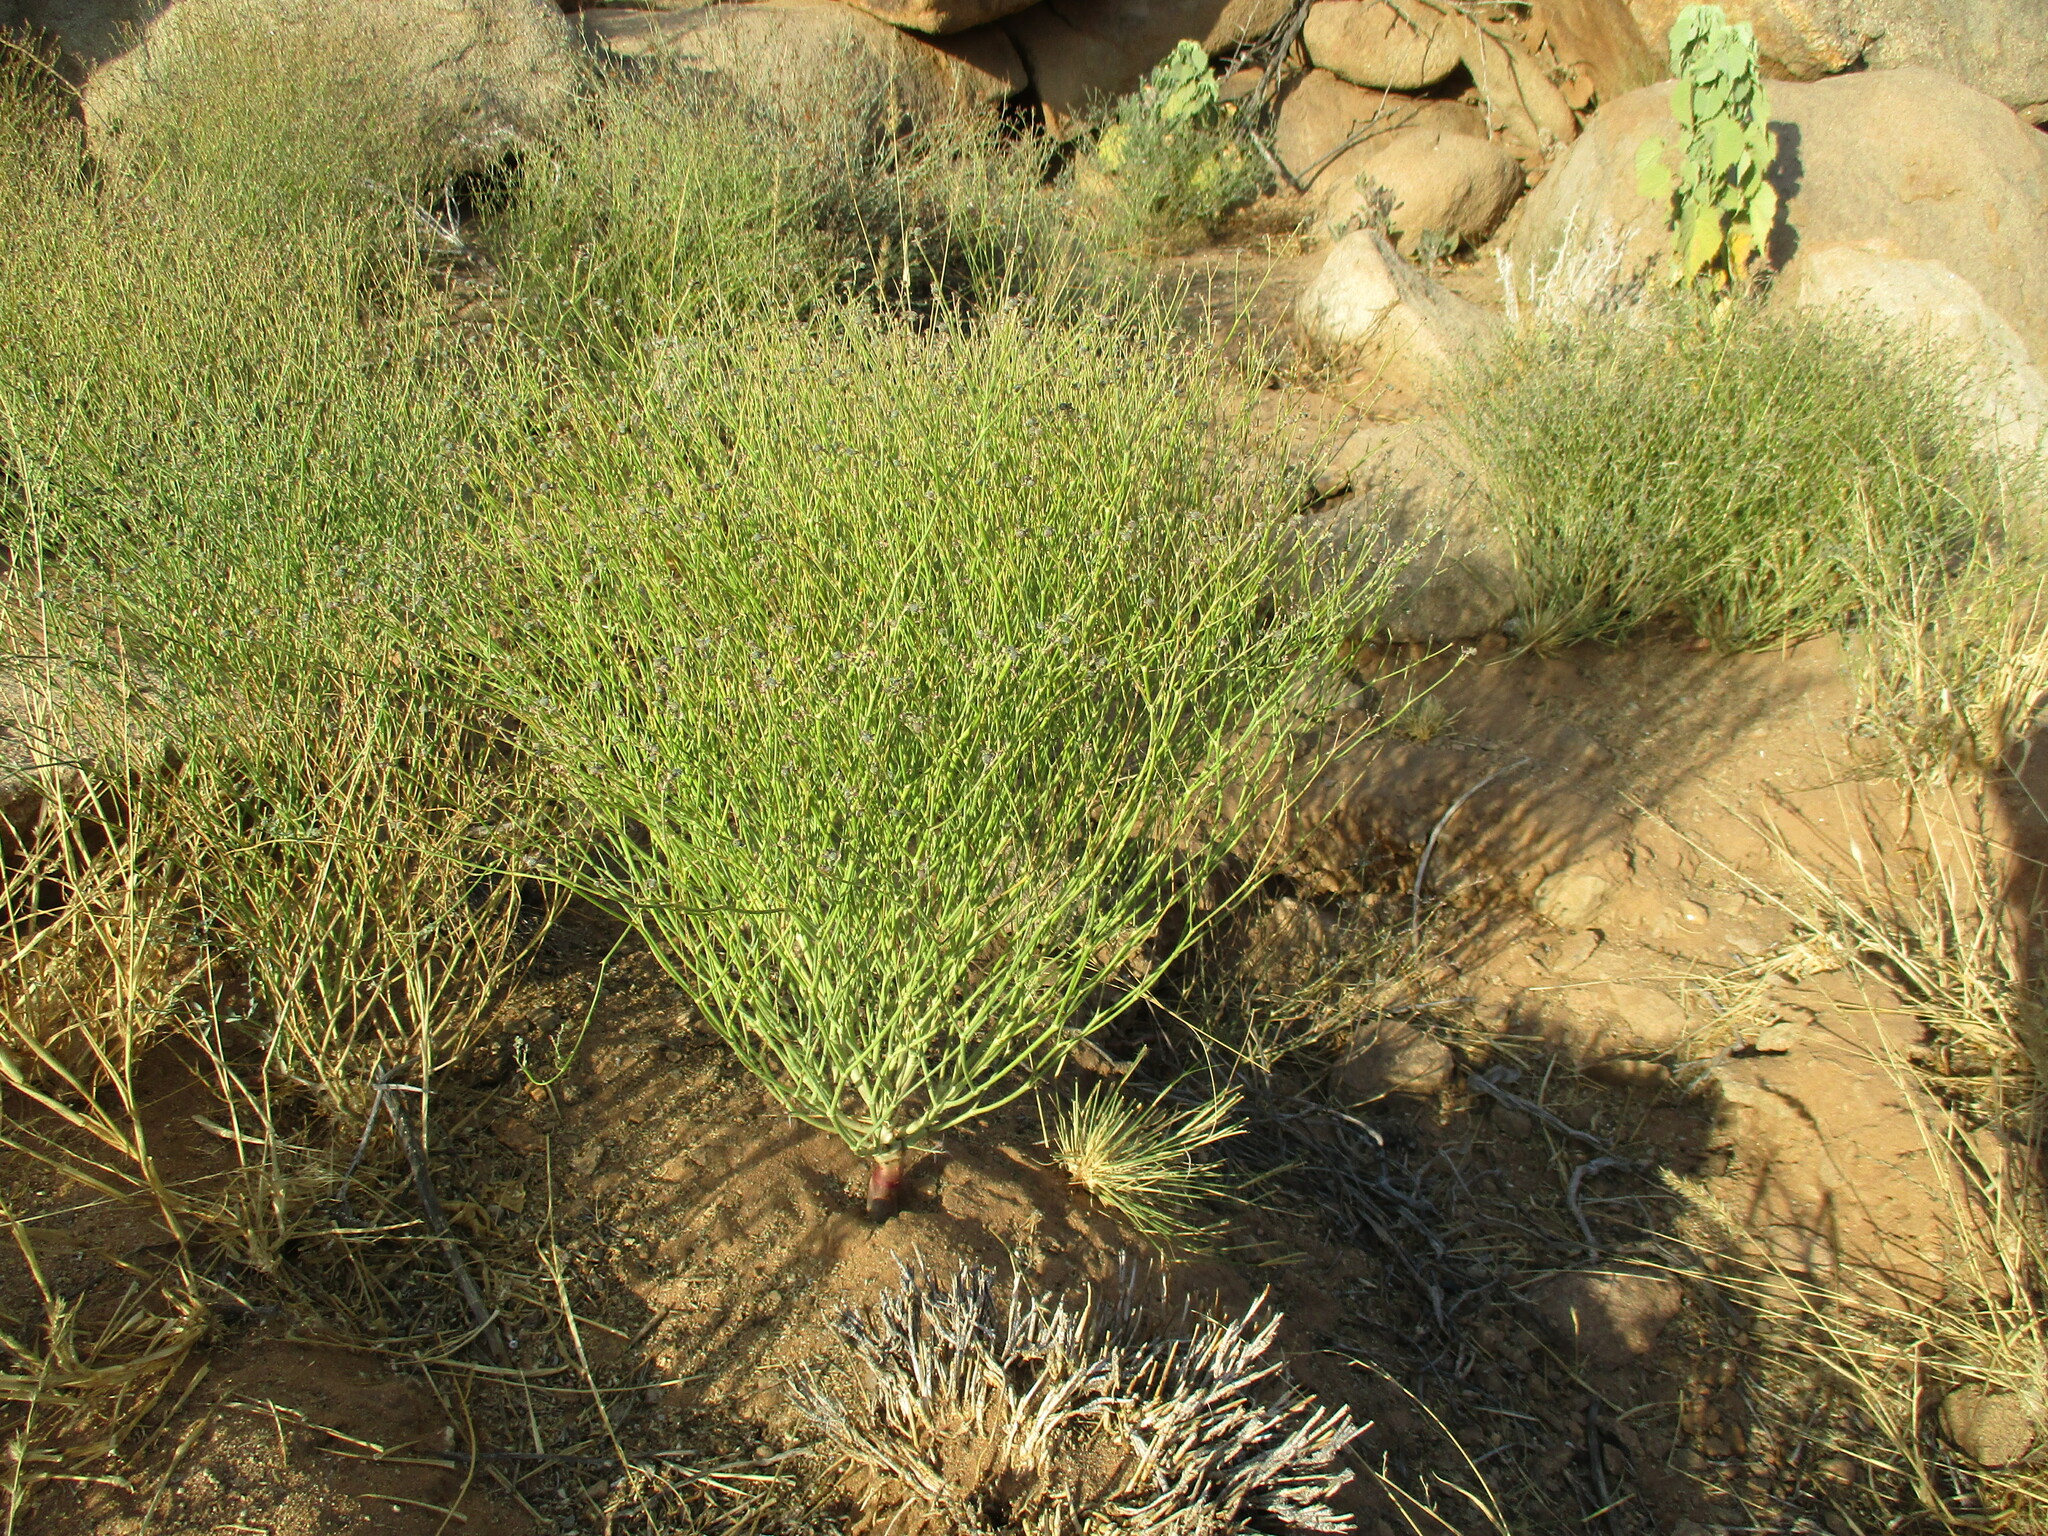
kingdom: Plantae
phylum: Tracheophyta
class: Magnoliopsida
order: Malpighiales
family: Euphorbiaceae
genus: Euphorbia
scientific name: Euphorbia glanduligera
